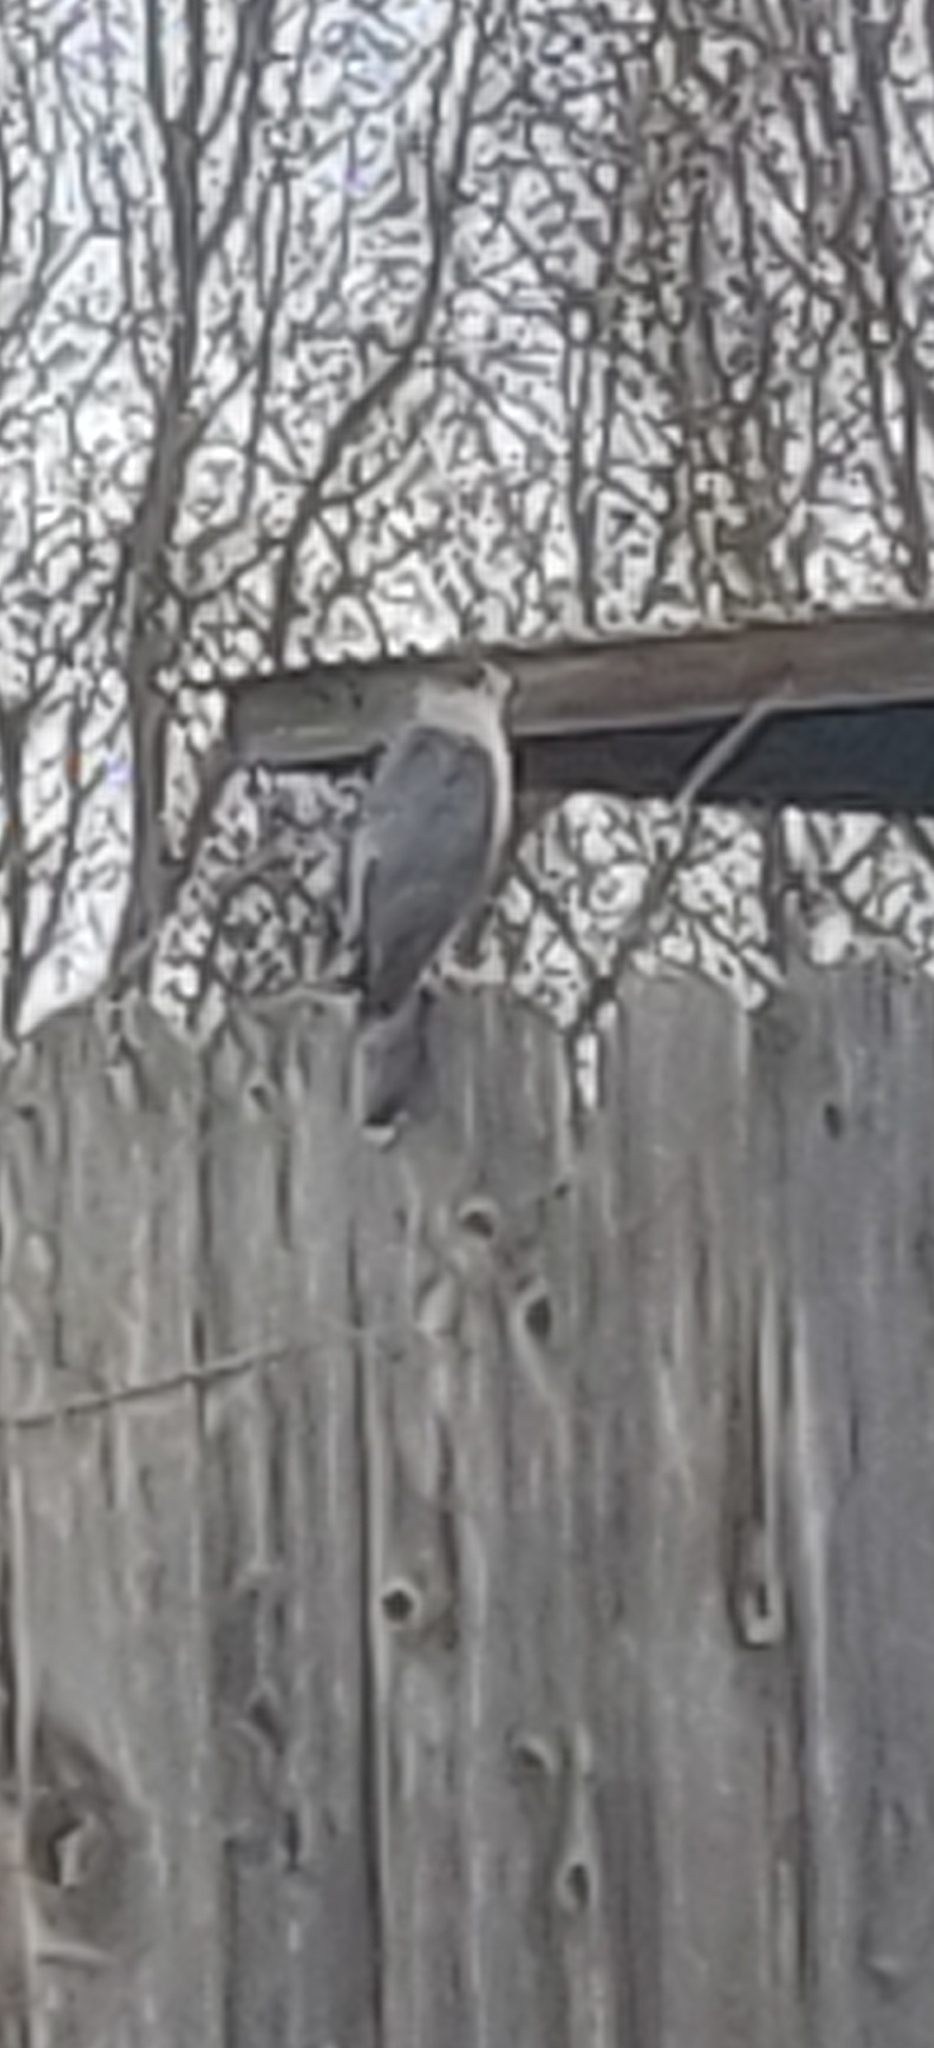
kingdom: Animalia
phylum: Chordata
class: Aves
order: Accipitriformes
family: Accipitridae
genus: Accipiter
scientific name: Accipiter cooperii
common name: Cooper's hawk
